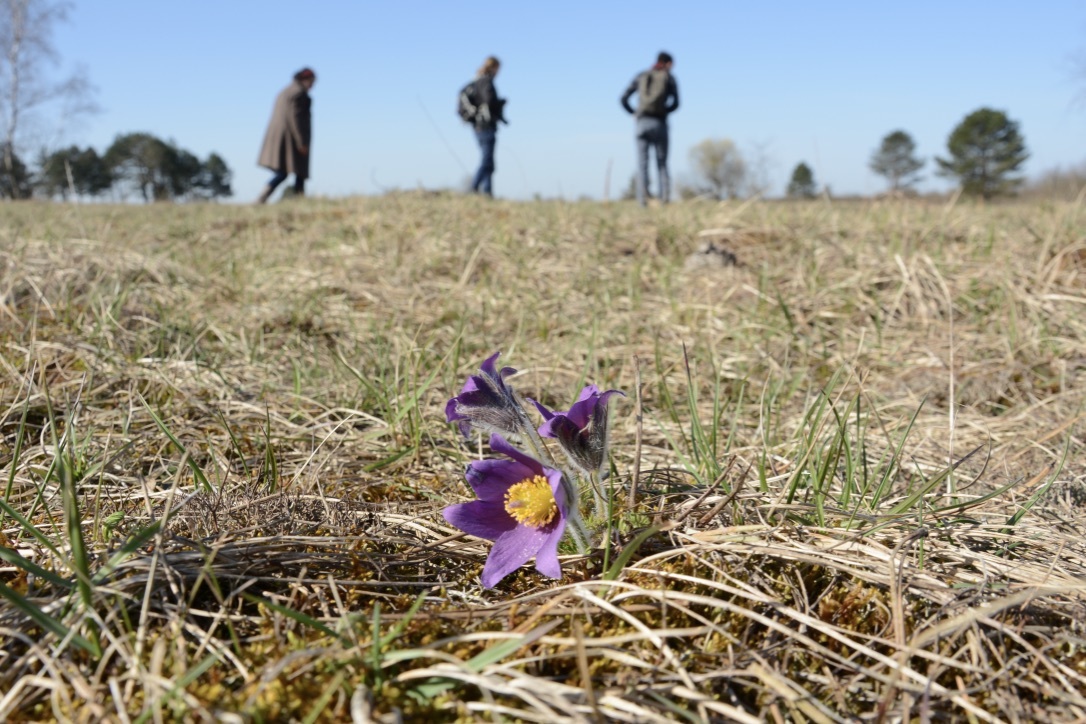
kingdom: Plantae
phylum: Tracheophyta
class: Magnoliopsida
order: Ranunculales
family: Ranunculaceae
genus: Pulsatilla
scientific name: Pulsatilla vulgaris
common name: Pasqueflower
